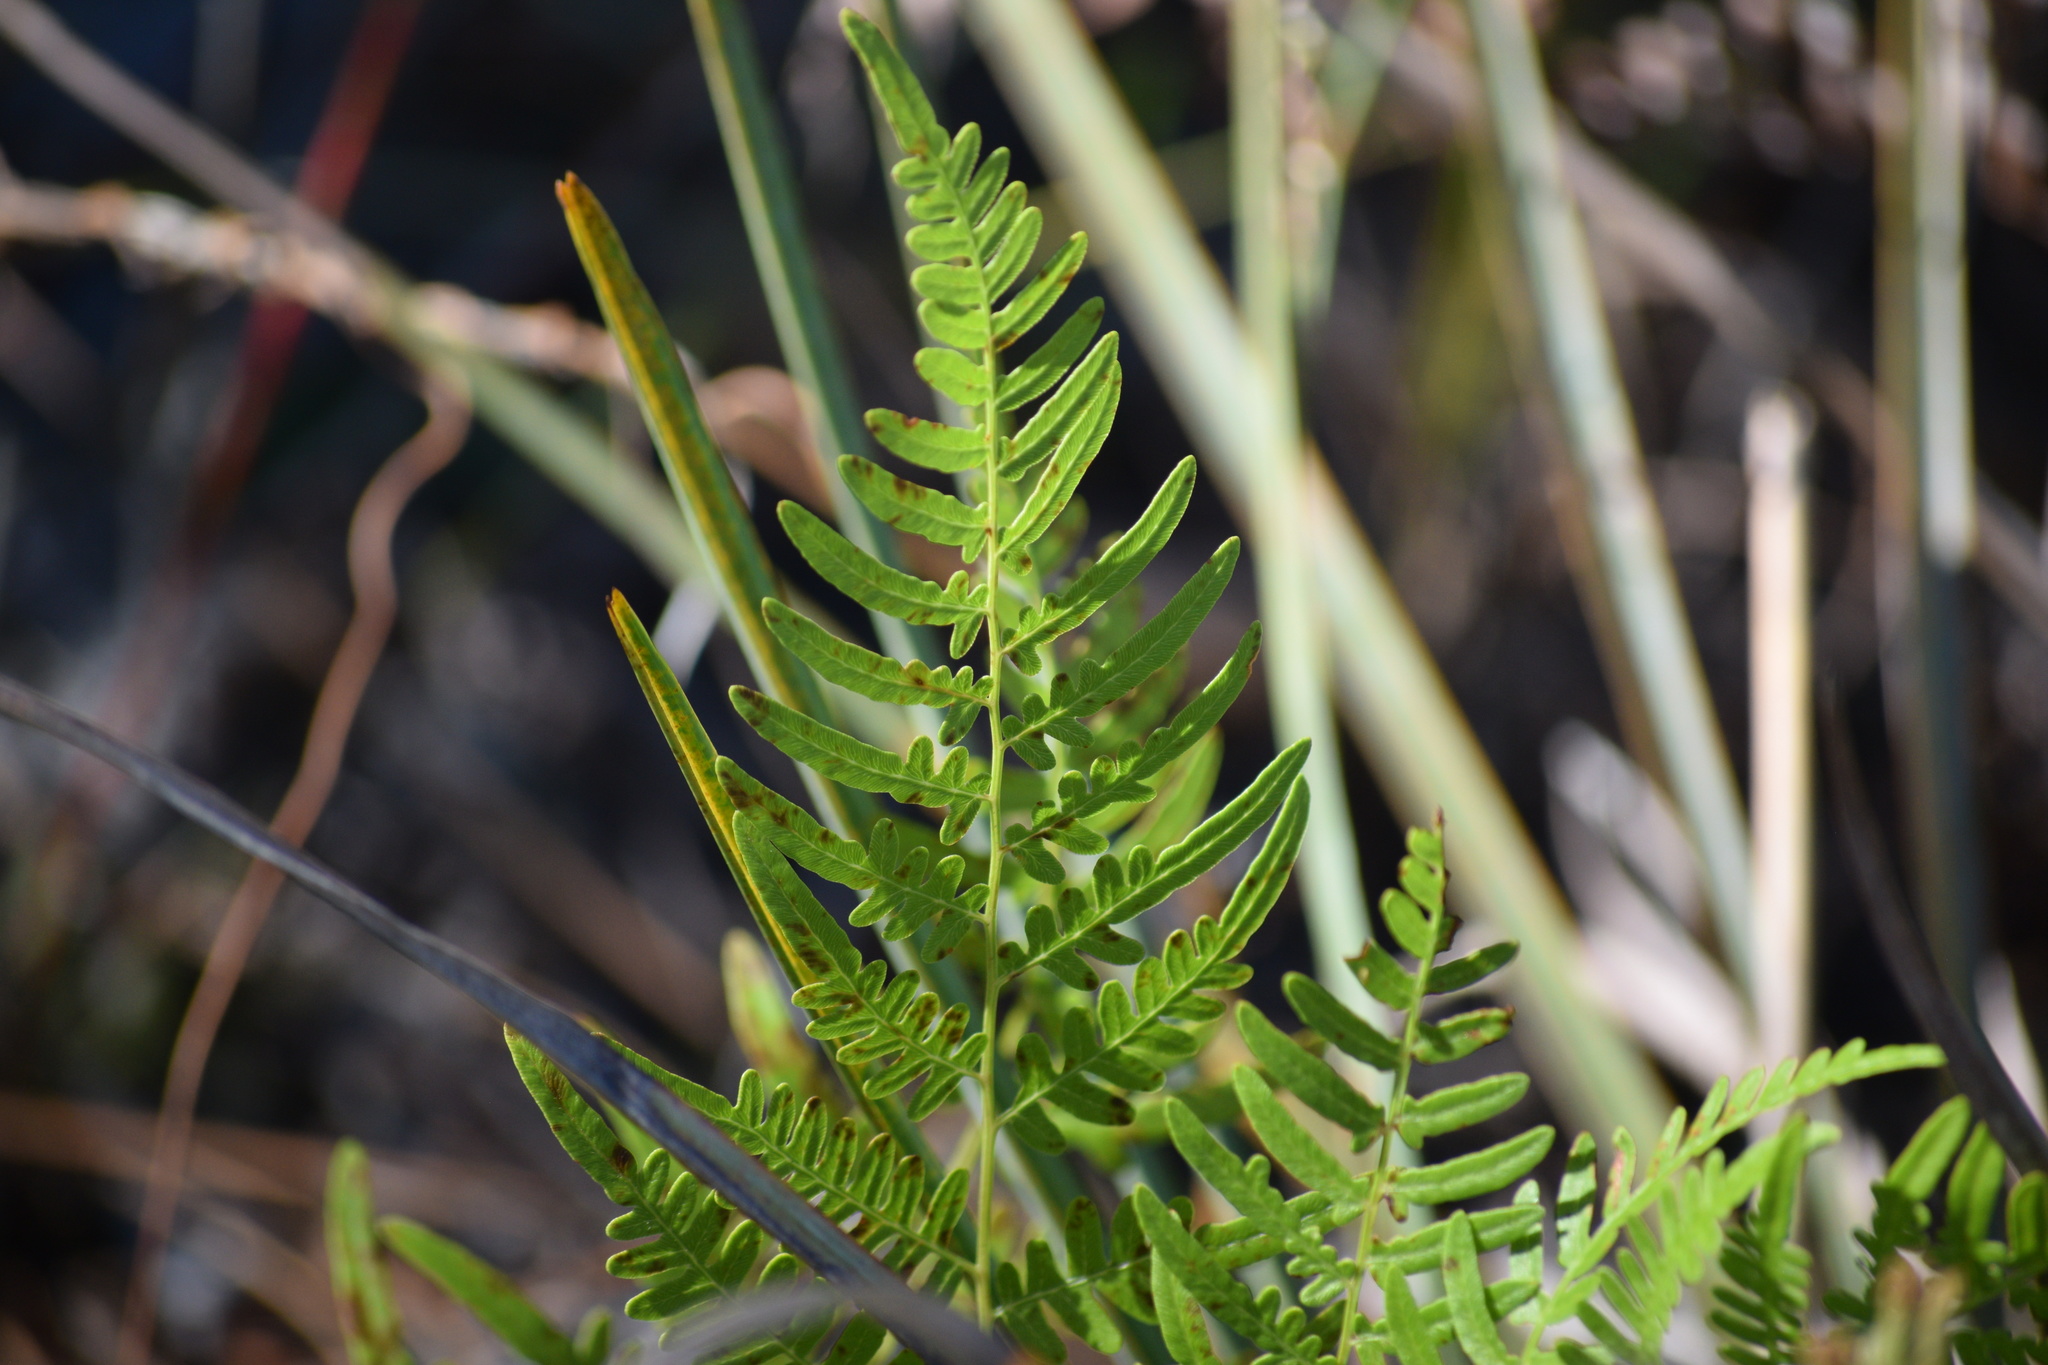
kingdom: Plantae
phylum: Tracheophyta
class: Polypodiopsida
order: Polypodiales
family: Dennstaedtiaceae
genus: Pteridium
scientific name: Pteridium
